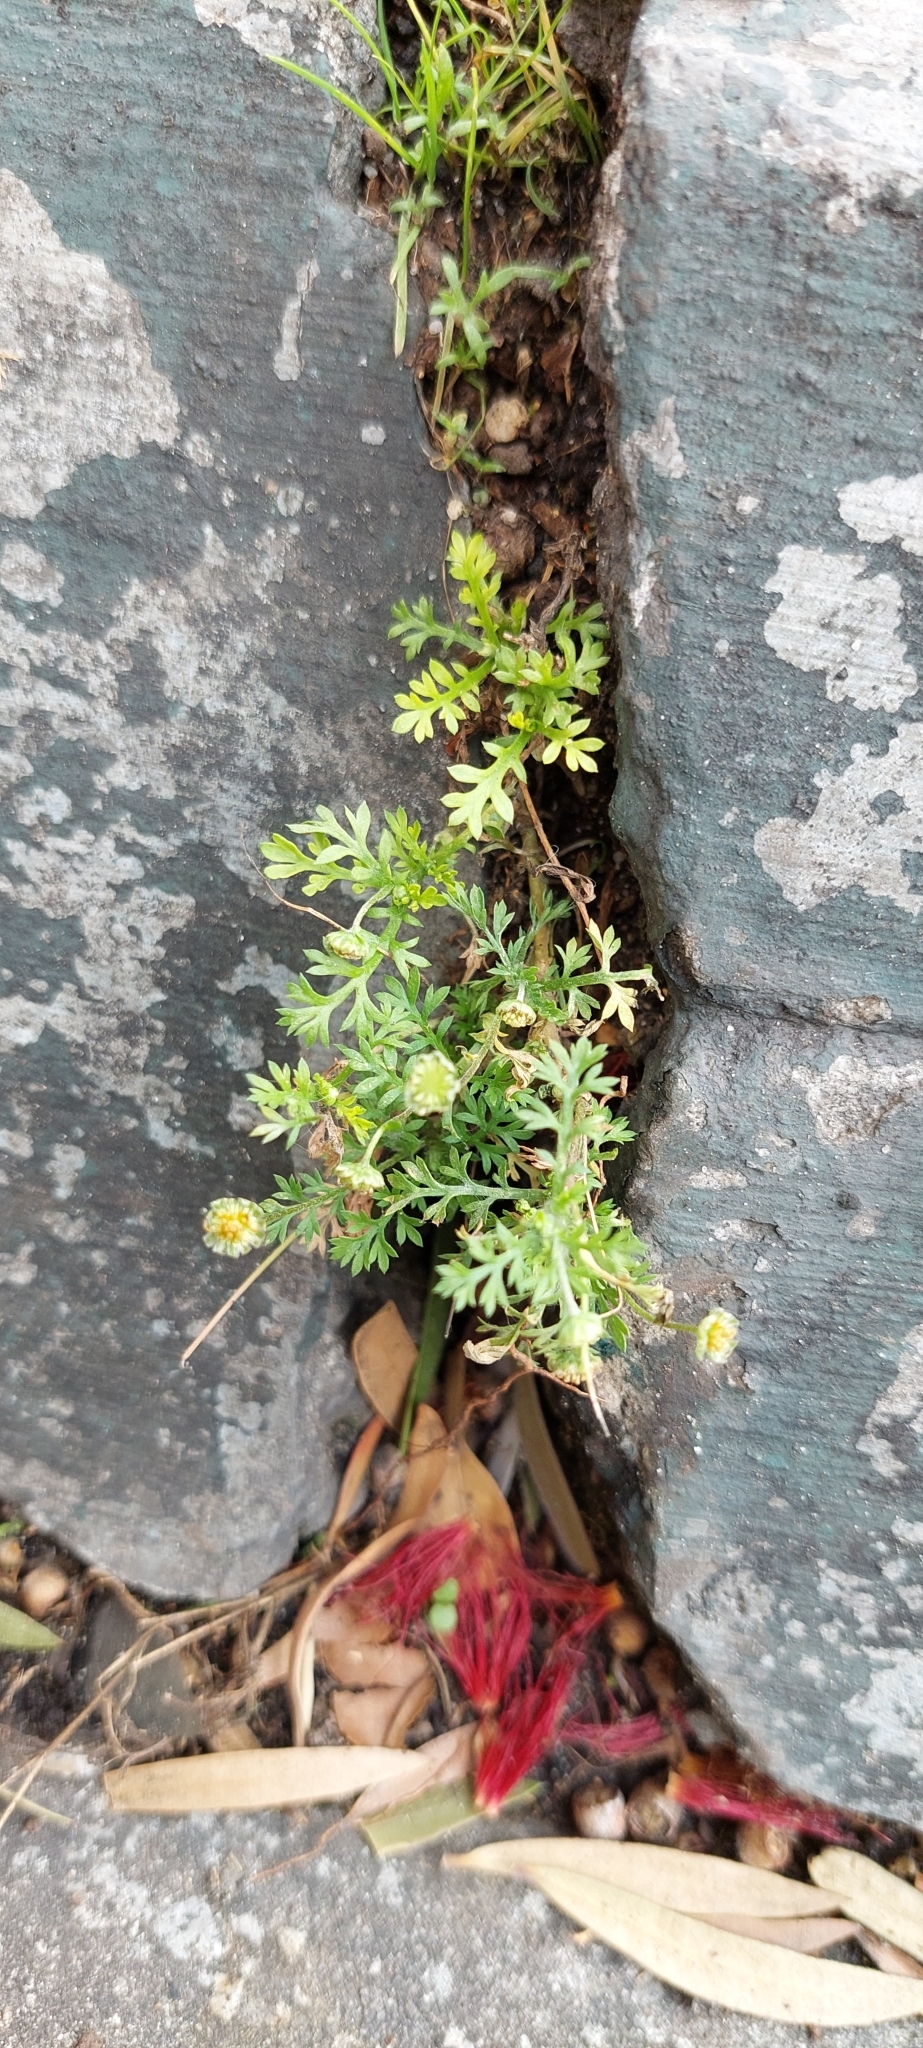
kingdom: Plantae
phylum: Tracheophyta
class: Magnoliopsida
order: Asterales
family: Asteraceae
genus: Cotula
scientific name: Cotula australis
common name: Australian waterbuttons
